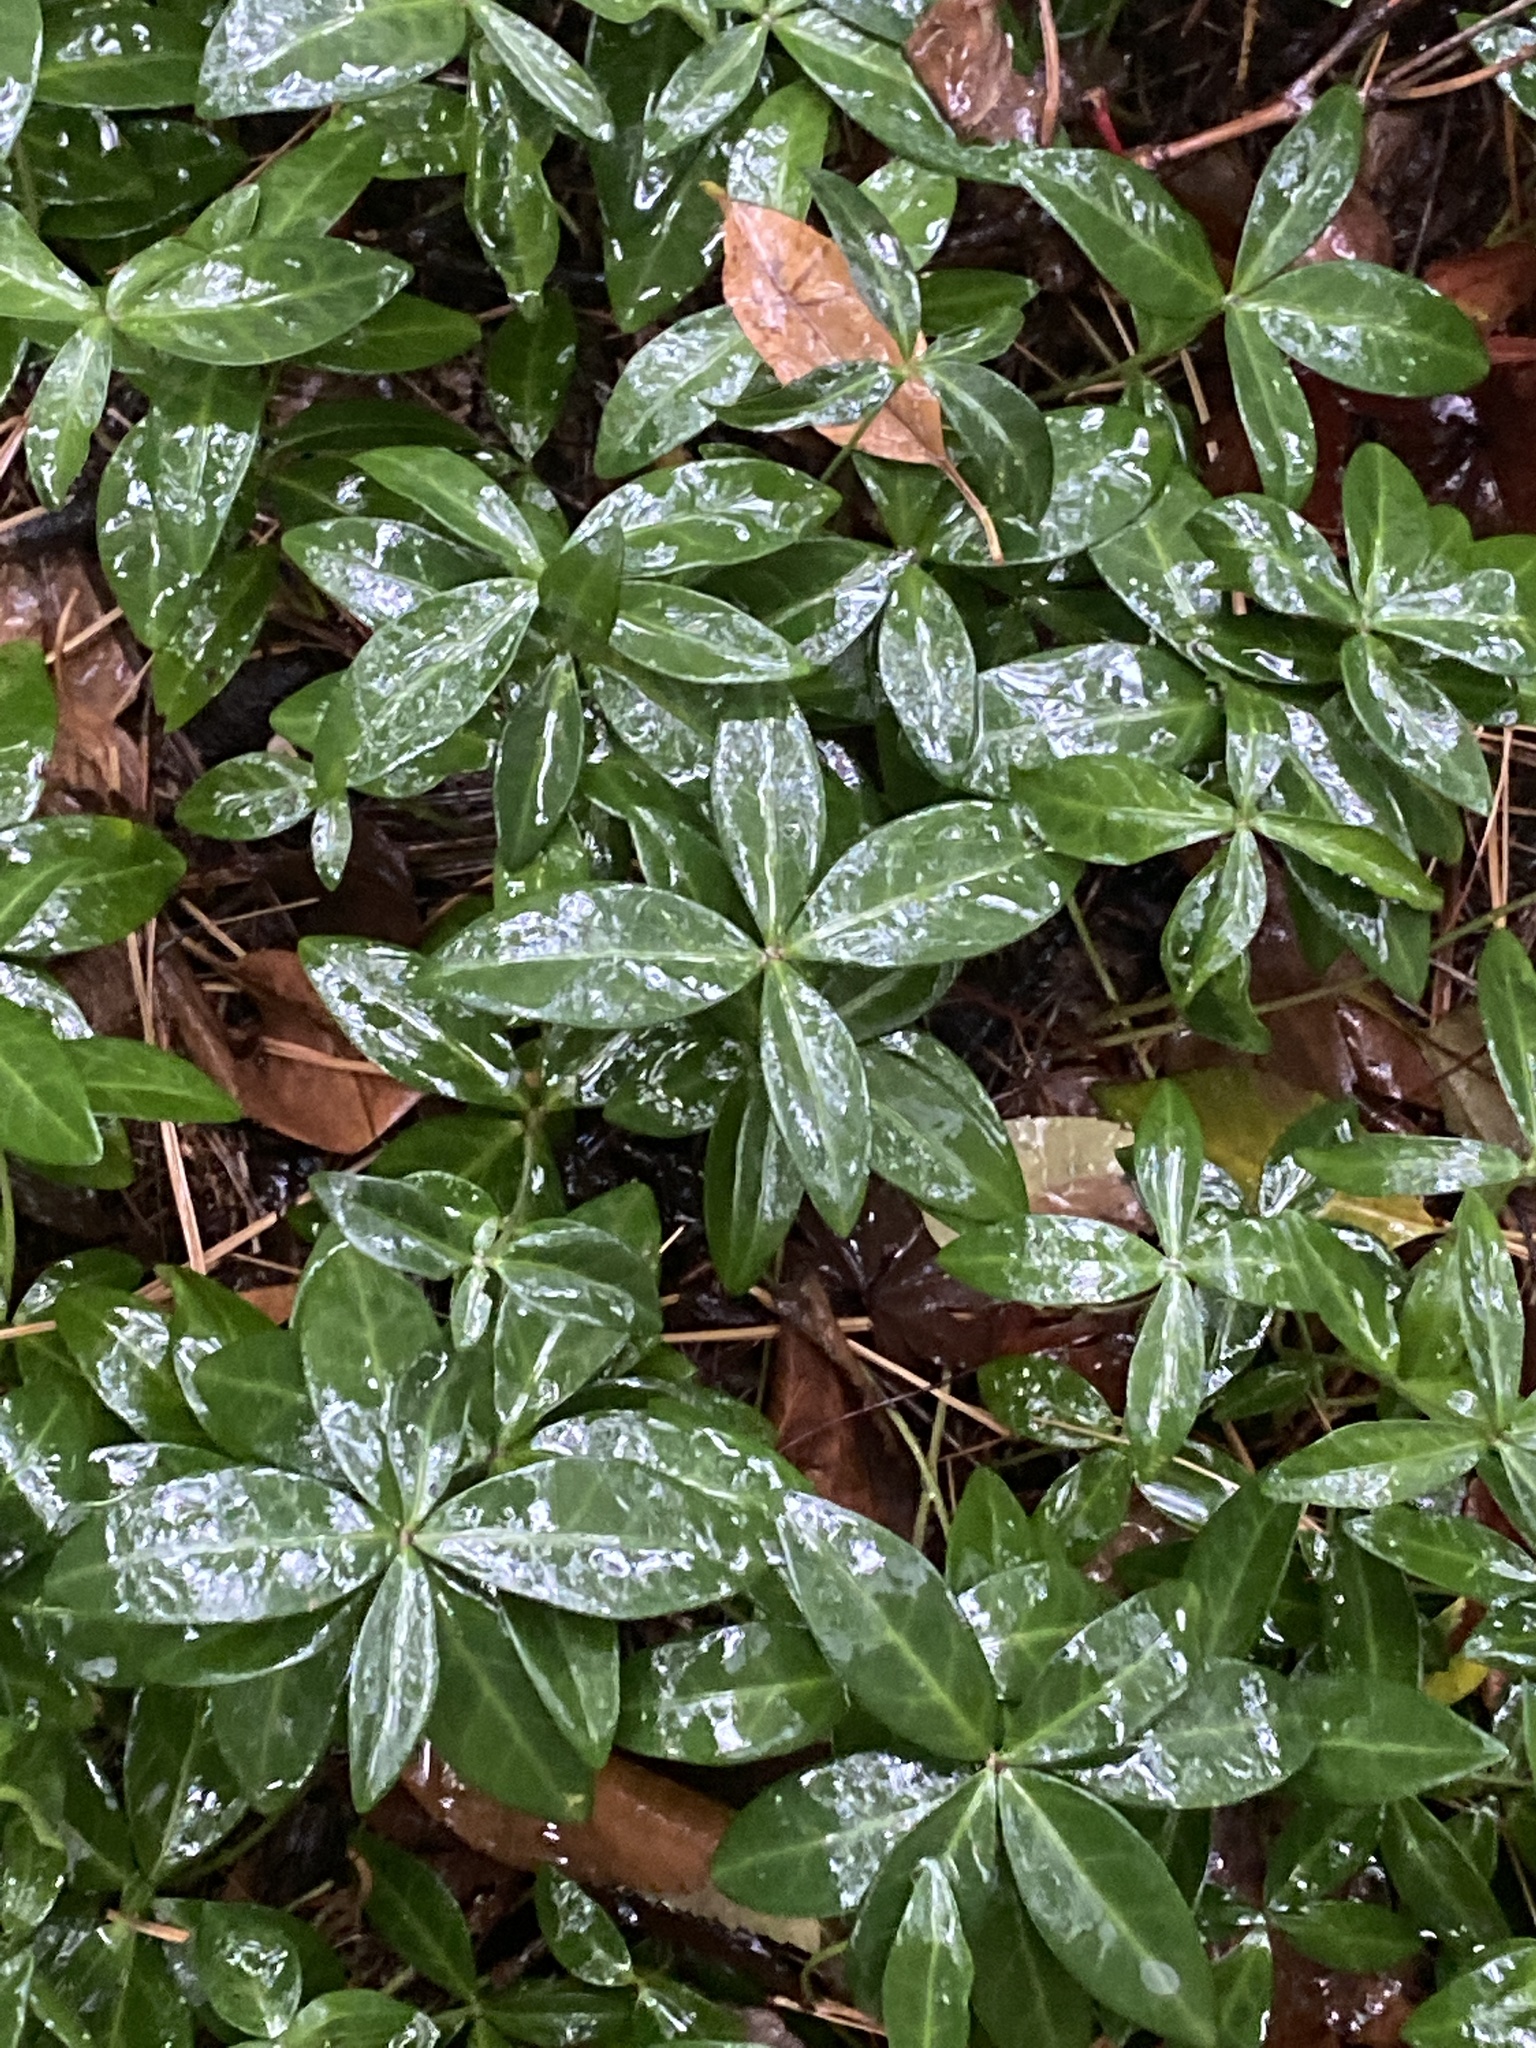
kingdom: Plantae
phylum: Tracheophyta
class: Magnoliopsida
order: Gentianales
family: Apocynaceae
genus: Vinca
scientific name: Vinca minor
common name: Lesser periwinkle
